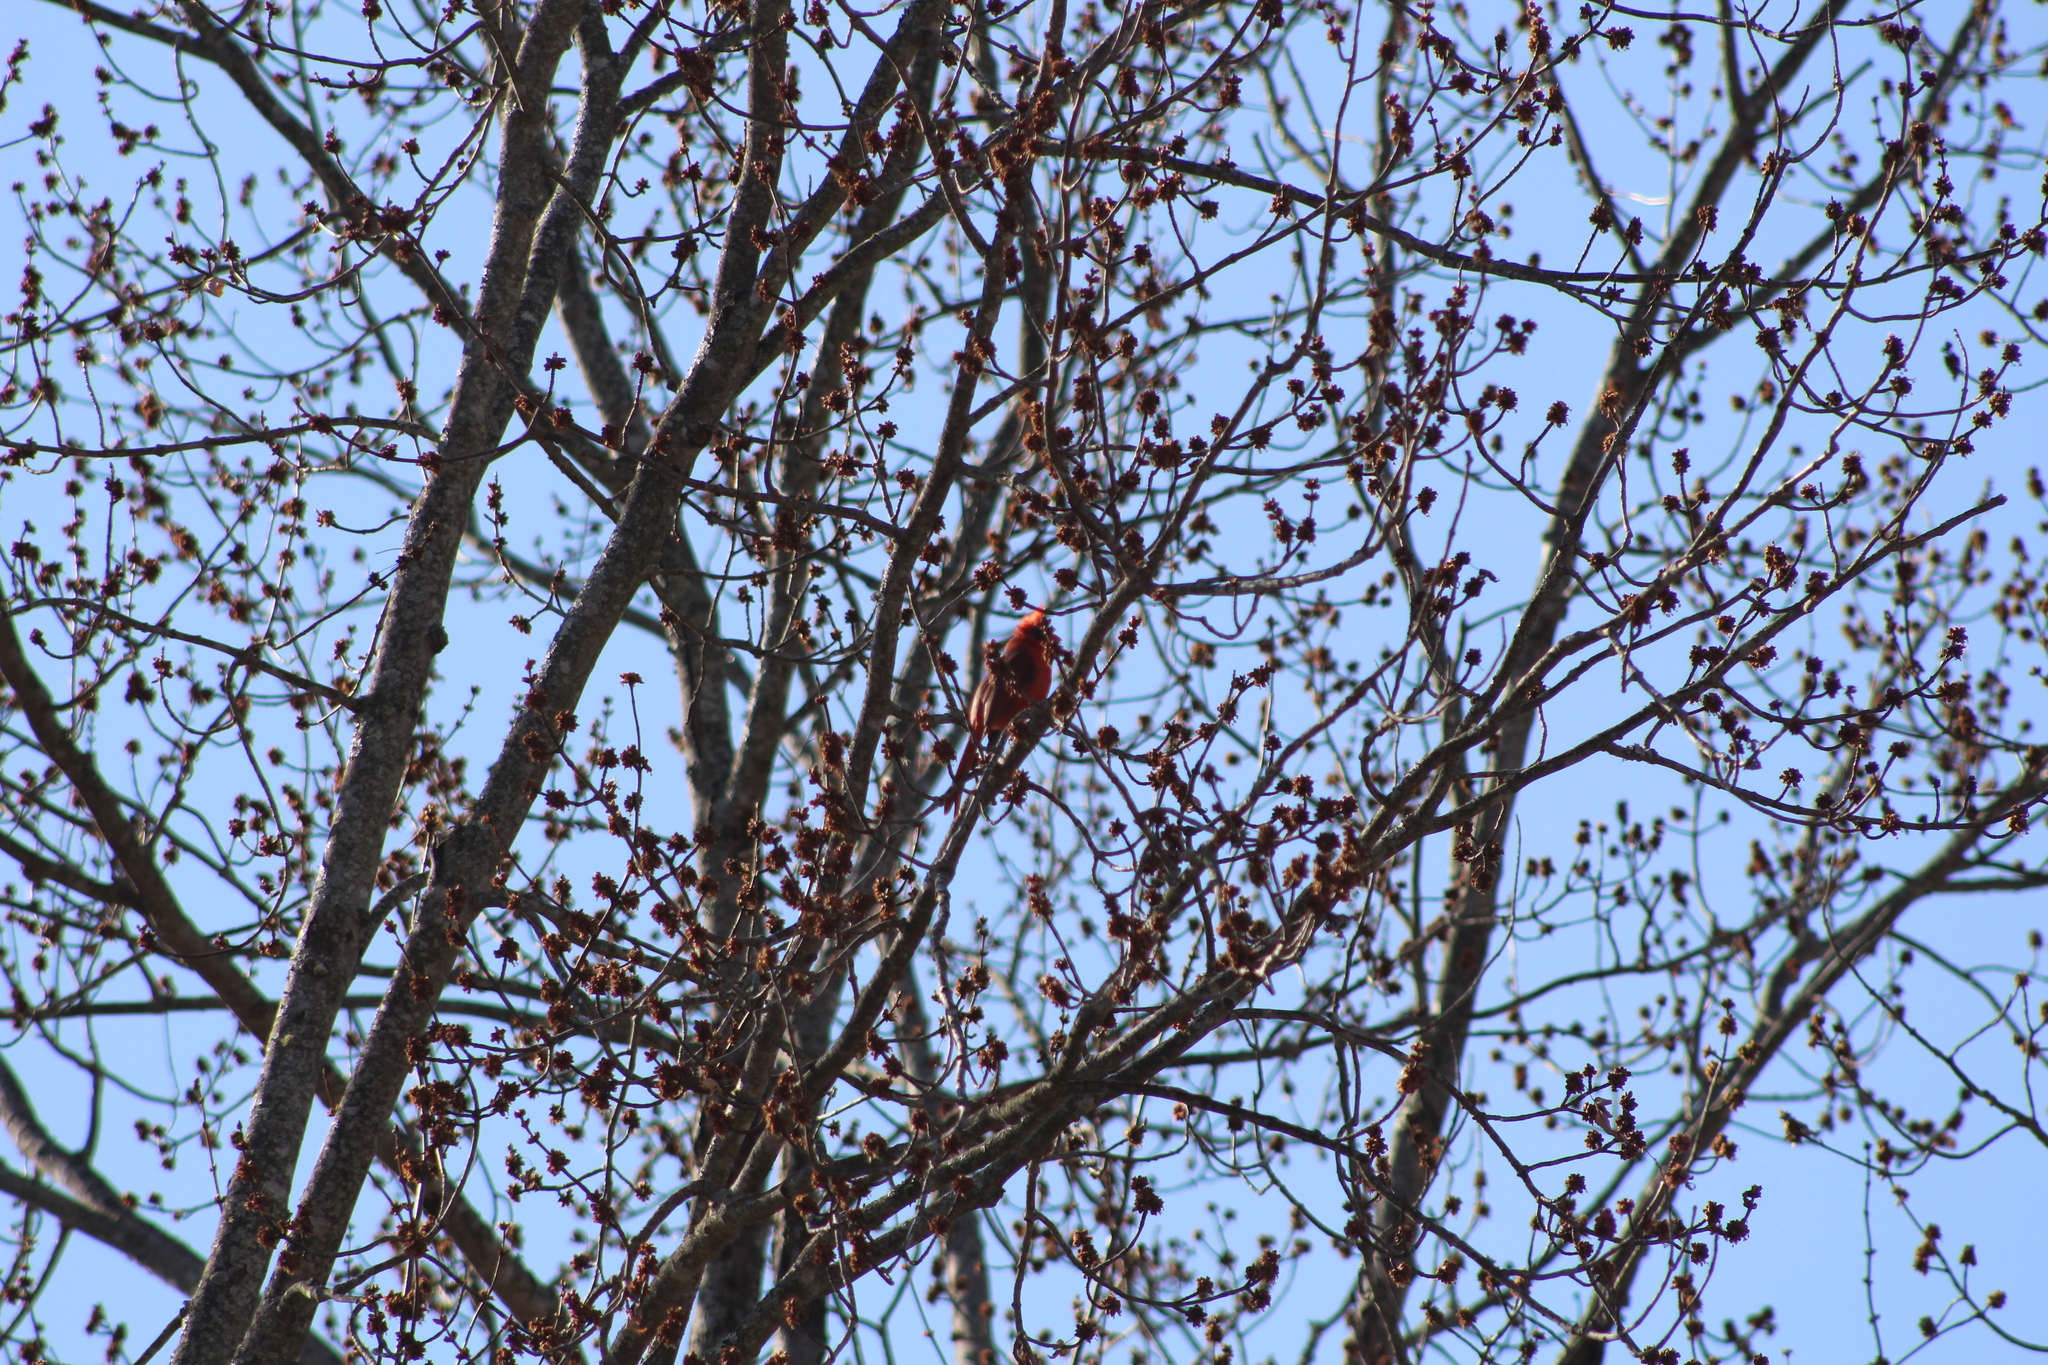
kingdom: Animalia
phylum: Chordata
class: Aves
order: Passeriformes
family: Cardinalidae
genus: Cardinalis
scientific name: Cardinalis cardinalis
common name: Northern cardinal
